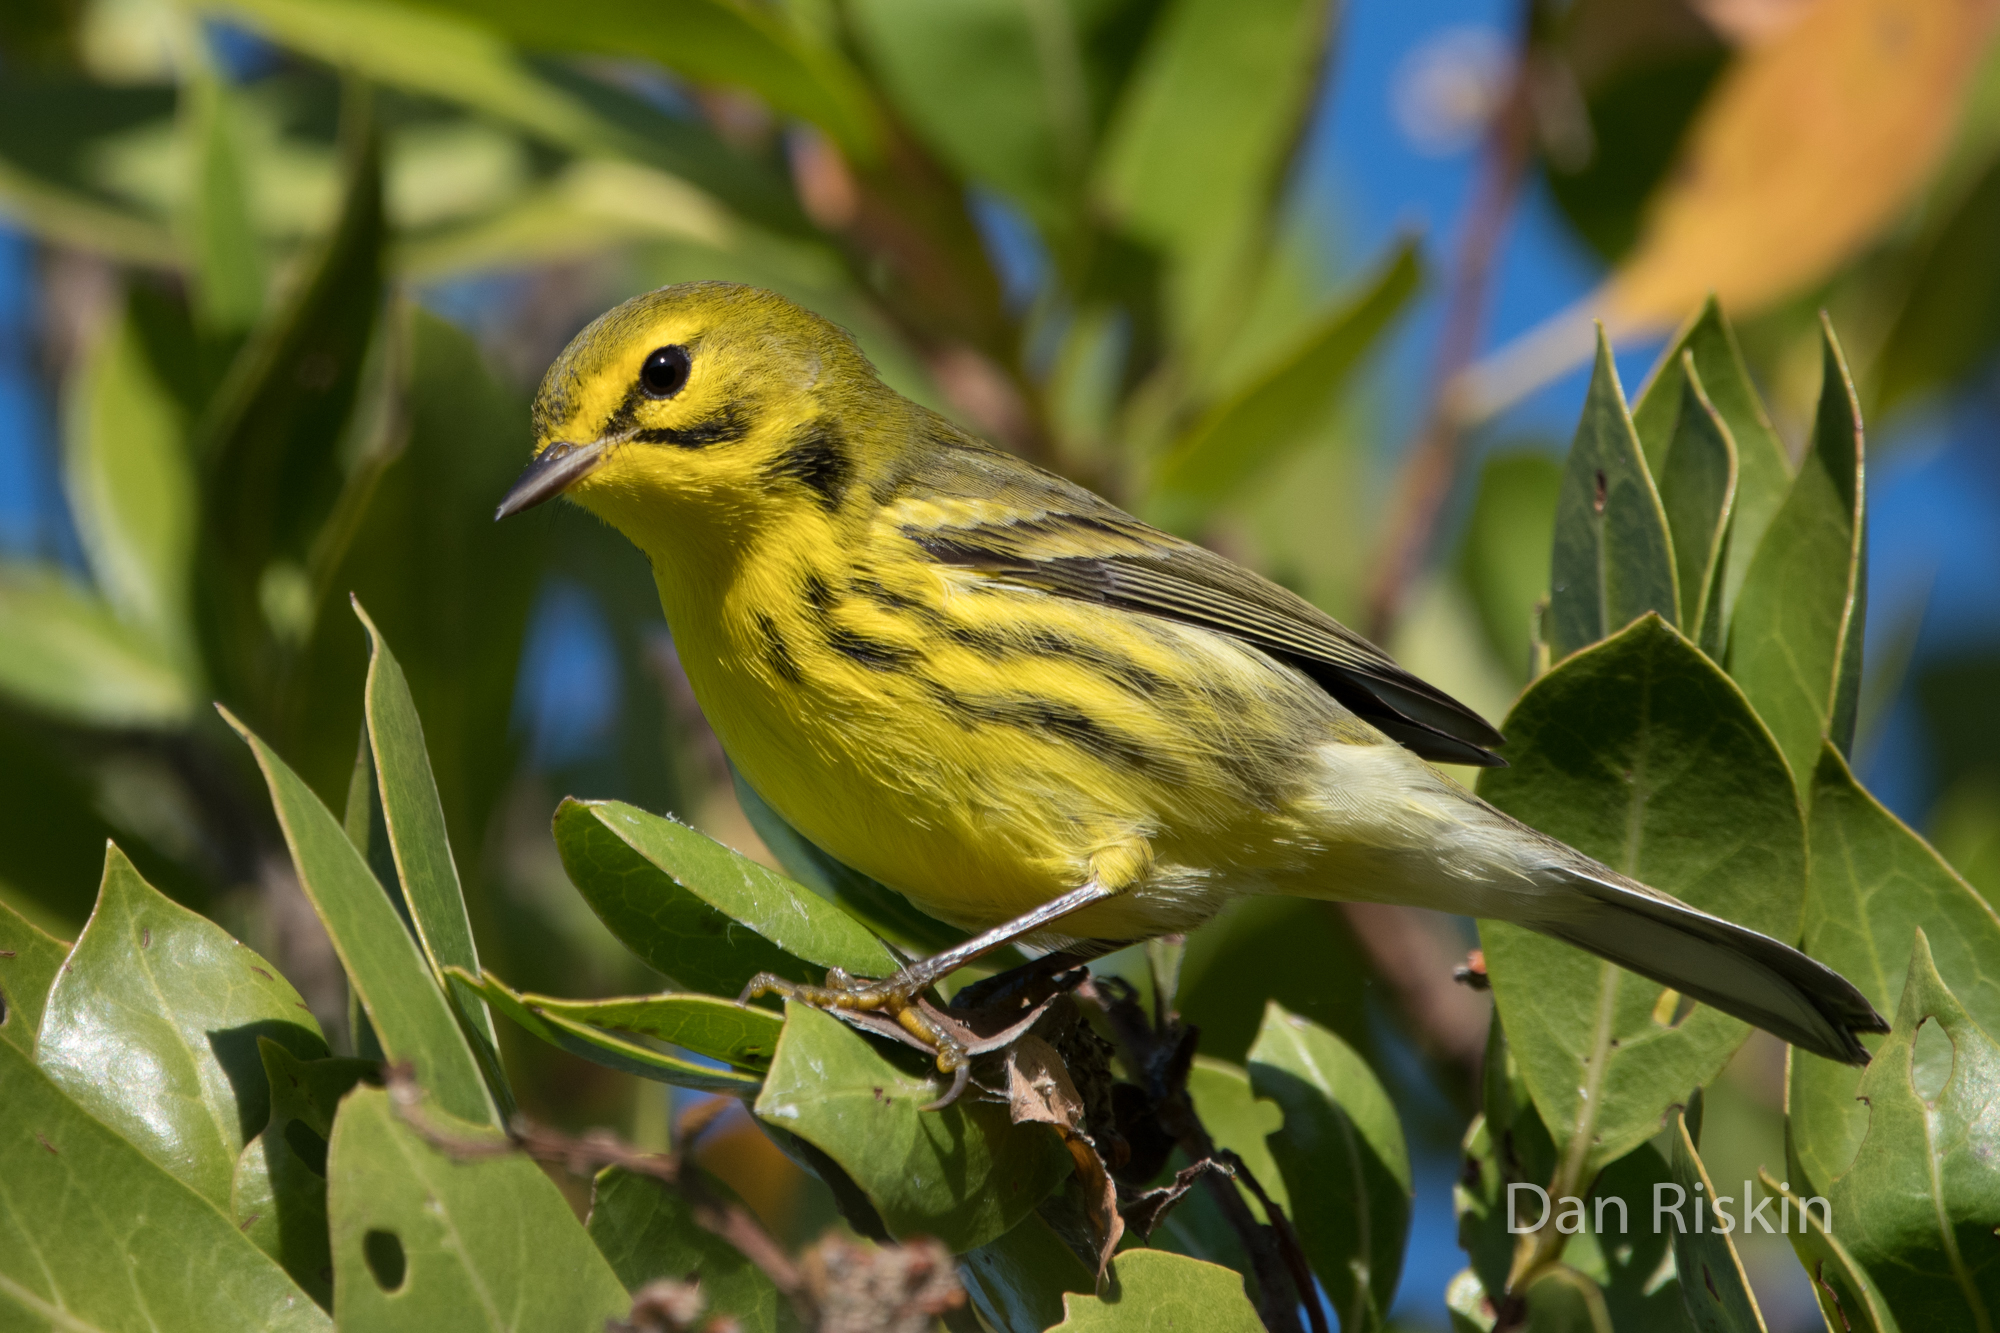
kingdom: Animalia
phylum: Chordata
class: Aves
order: Passeriformes
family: Parulidae
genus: Setophaga
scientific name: Setophaga discolor
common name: Prairie warbler
